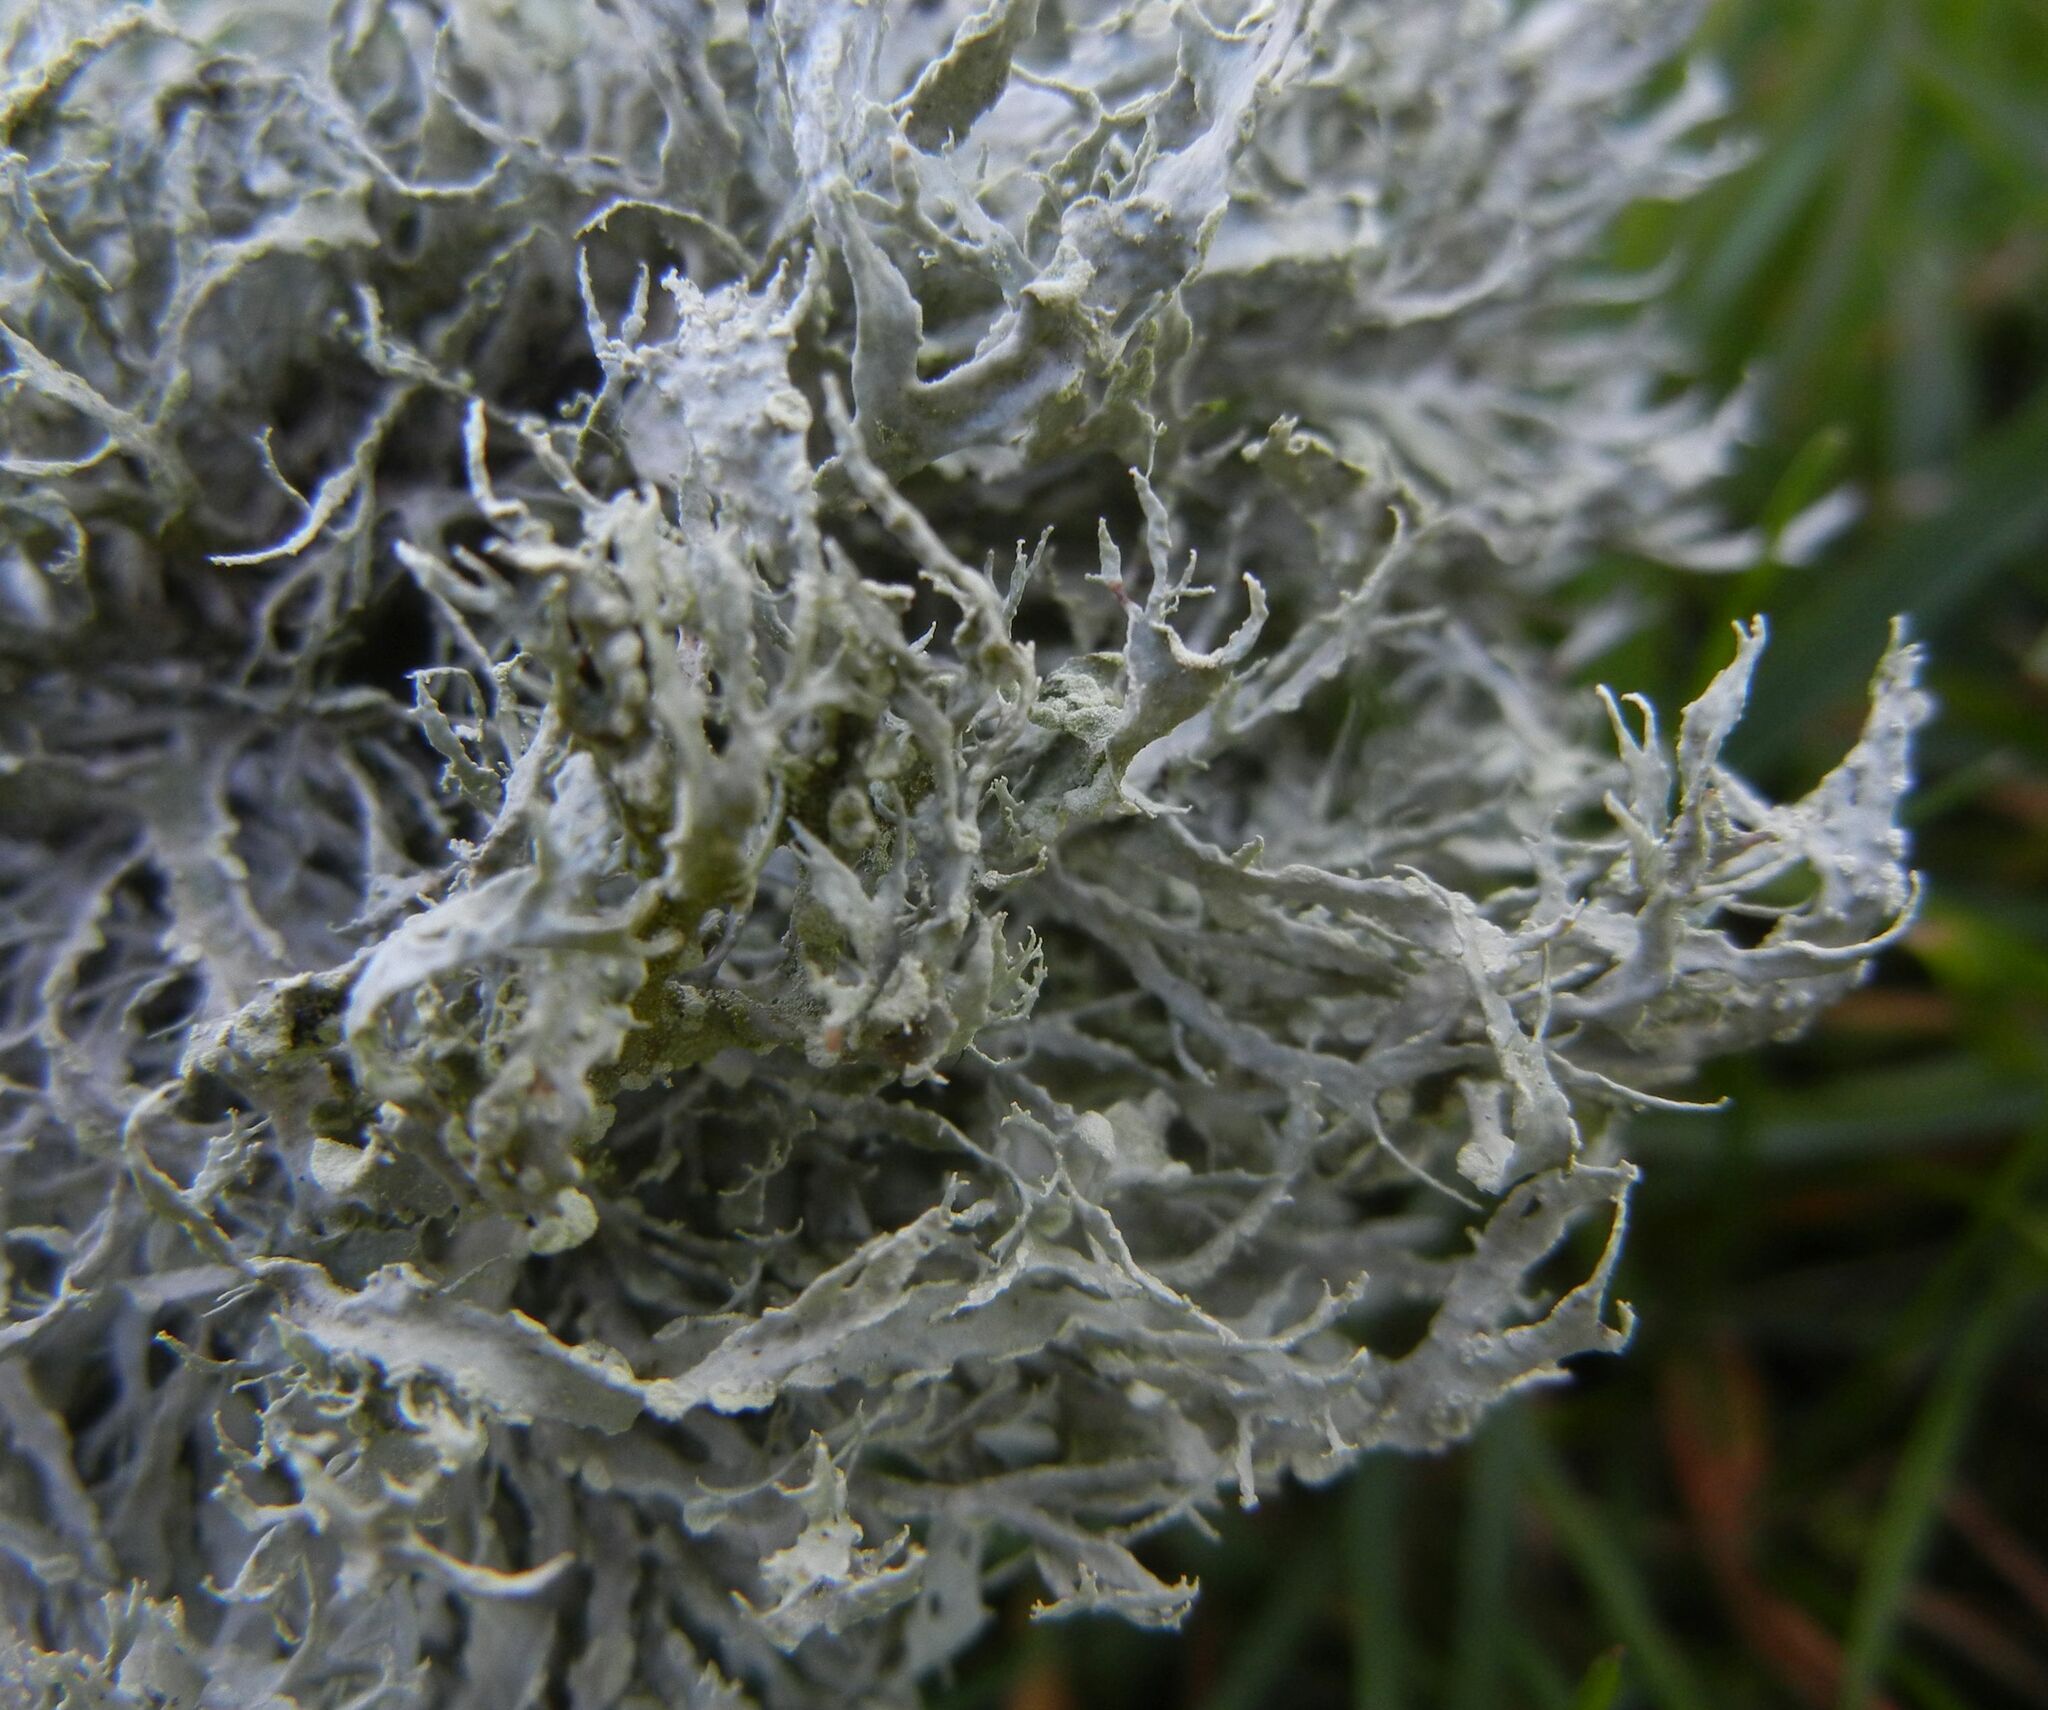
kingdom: Fungi
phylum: Ascomycota
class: Lecanoromycetes
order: Lecanorales
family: Ramalinaceae
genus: Ramalina
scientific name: Ramalina farinacea
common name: Farinose cartilage lichen
